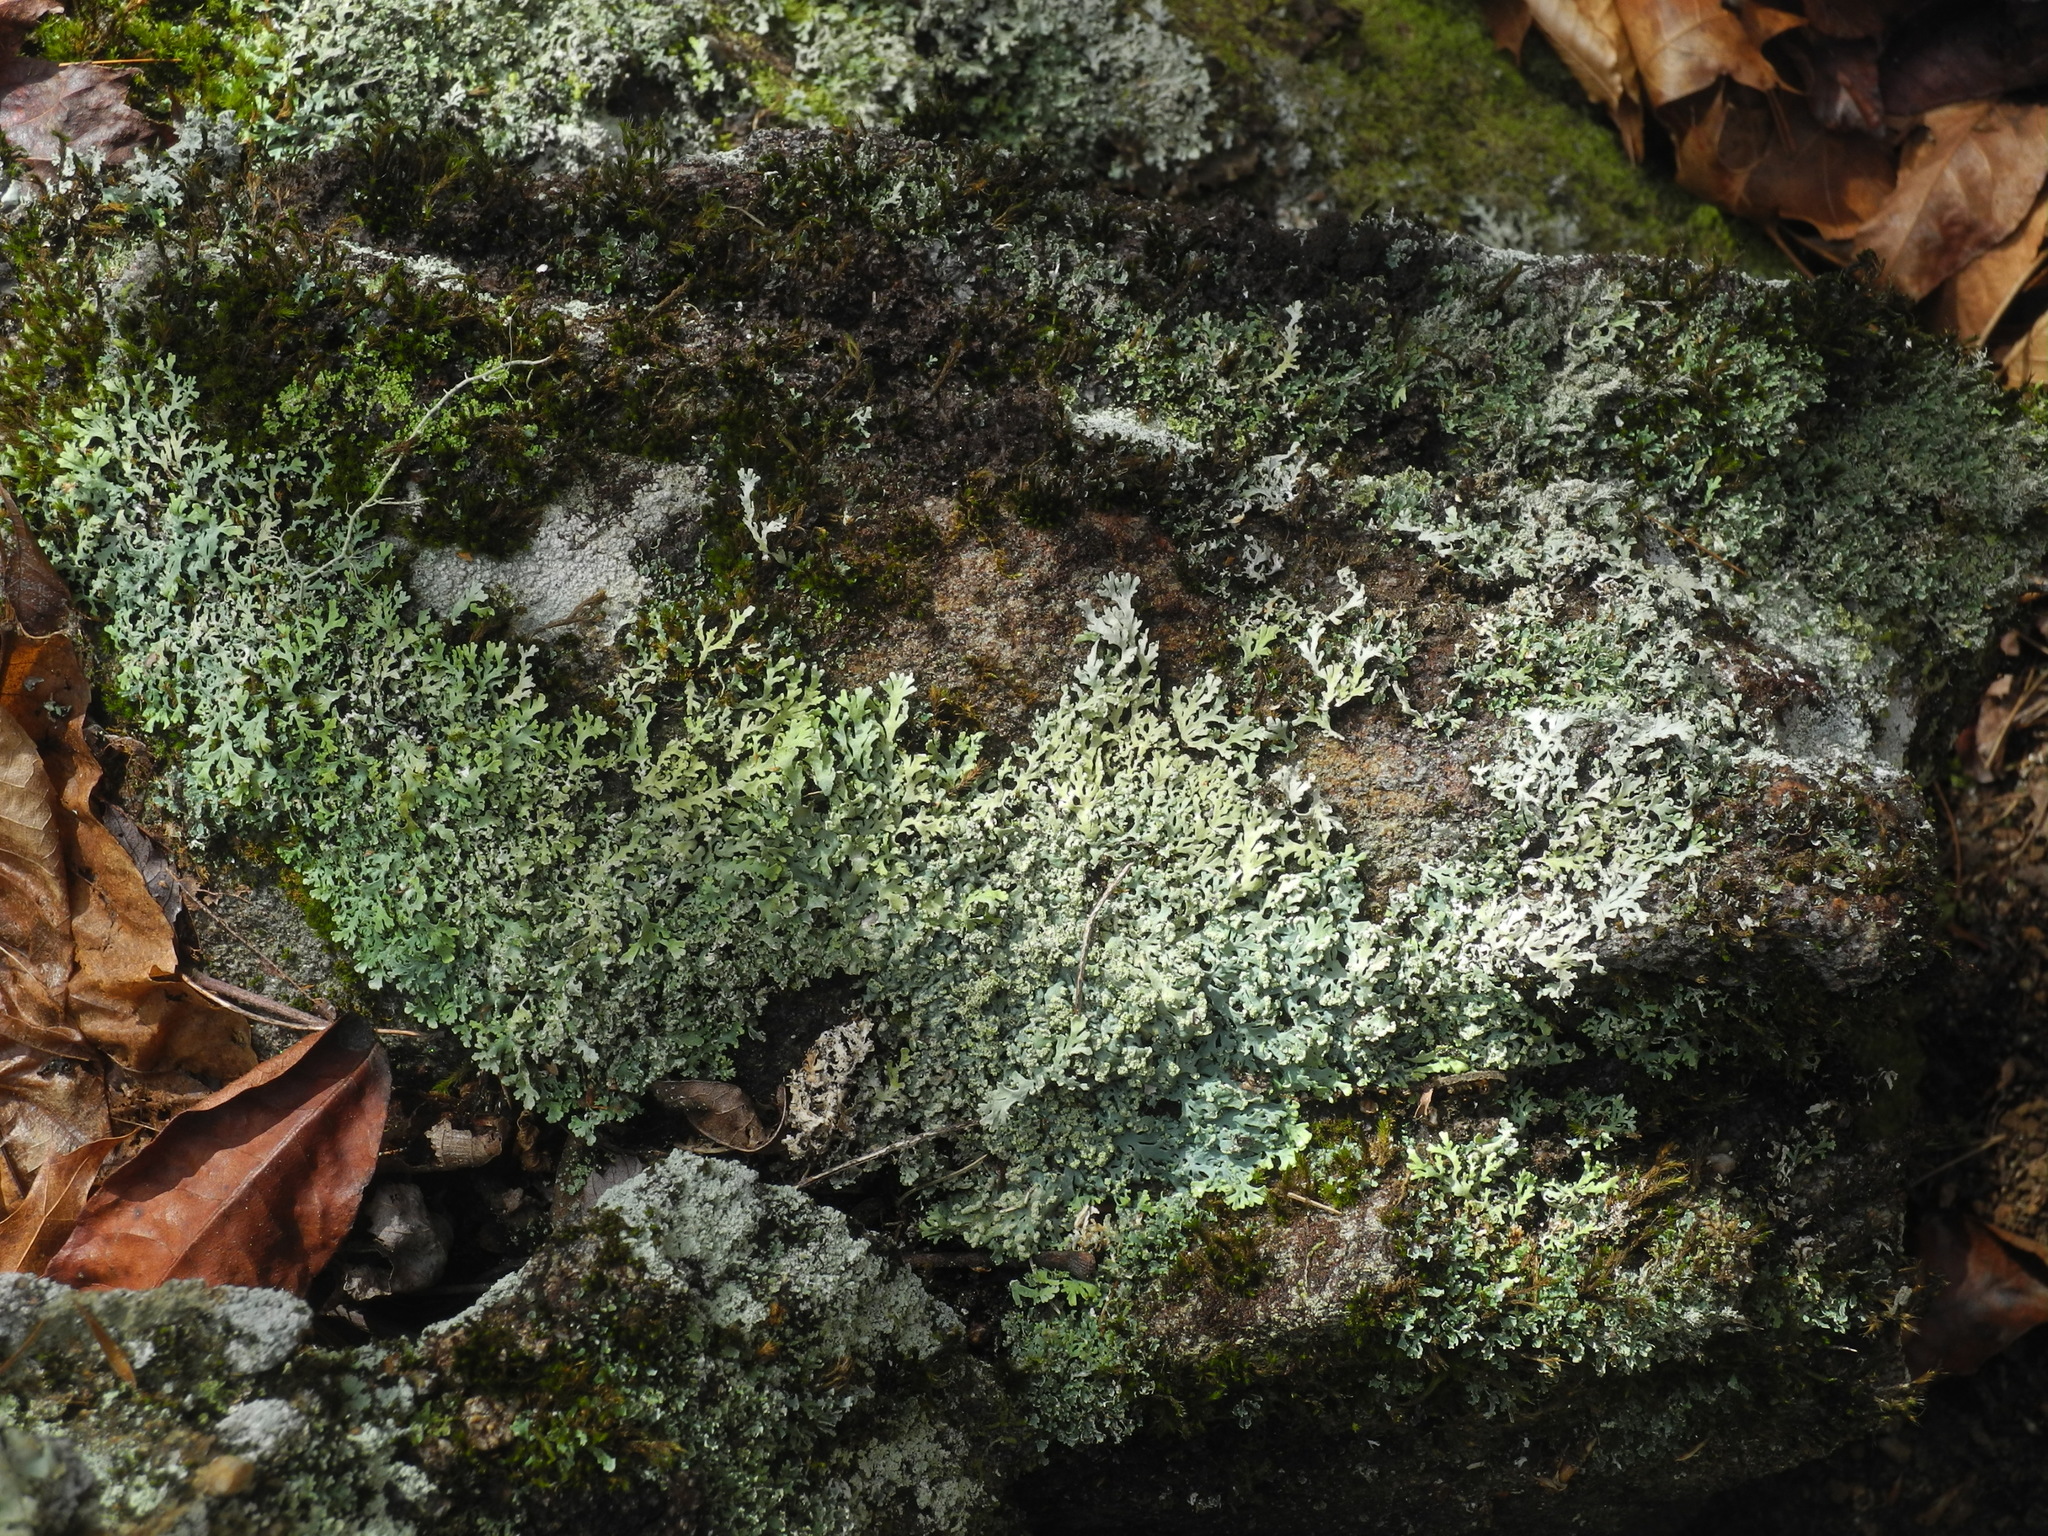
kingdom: Fungi
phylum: Ascomycota
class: Lecanoromycetes
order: Caliciales
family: Physciaceae
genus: Polyblastidium
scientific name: Polyblastidium japonicum
